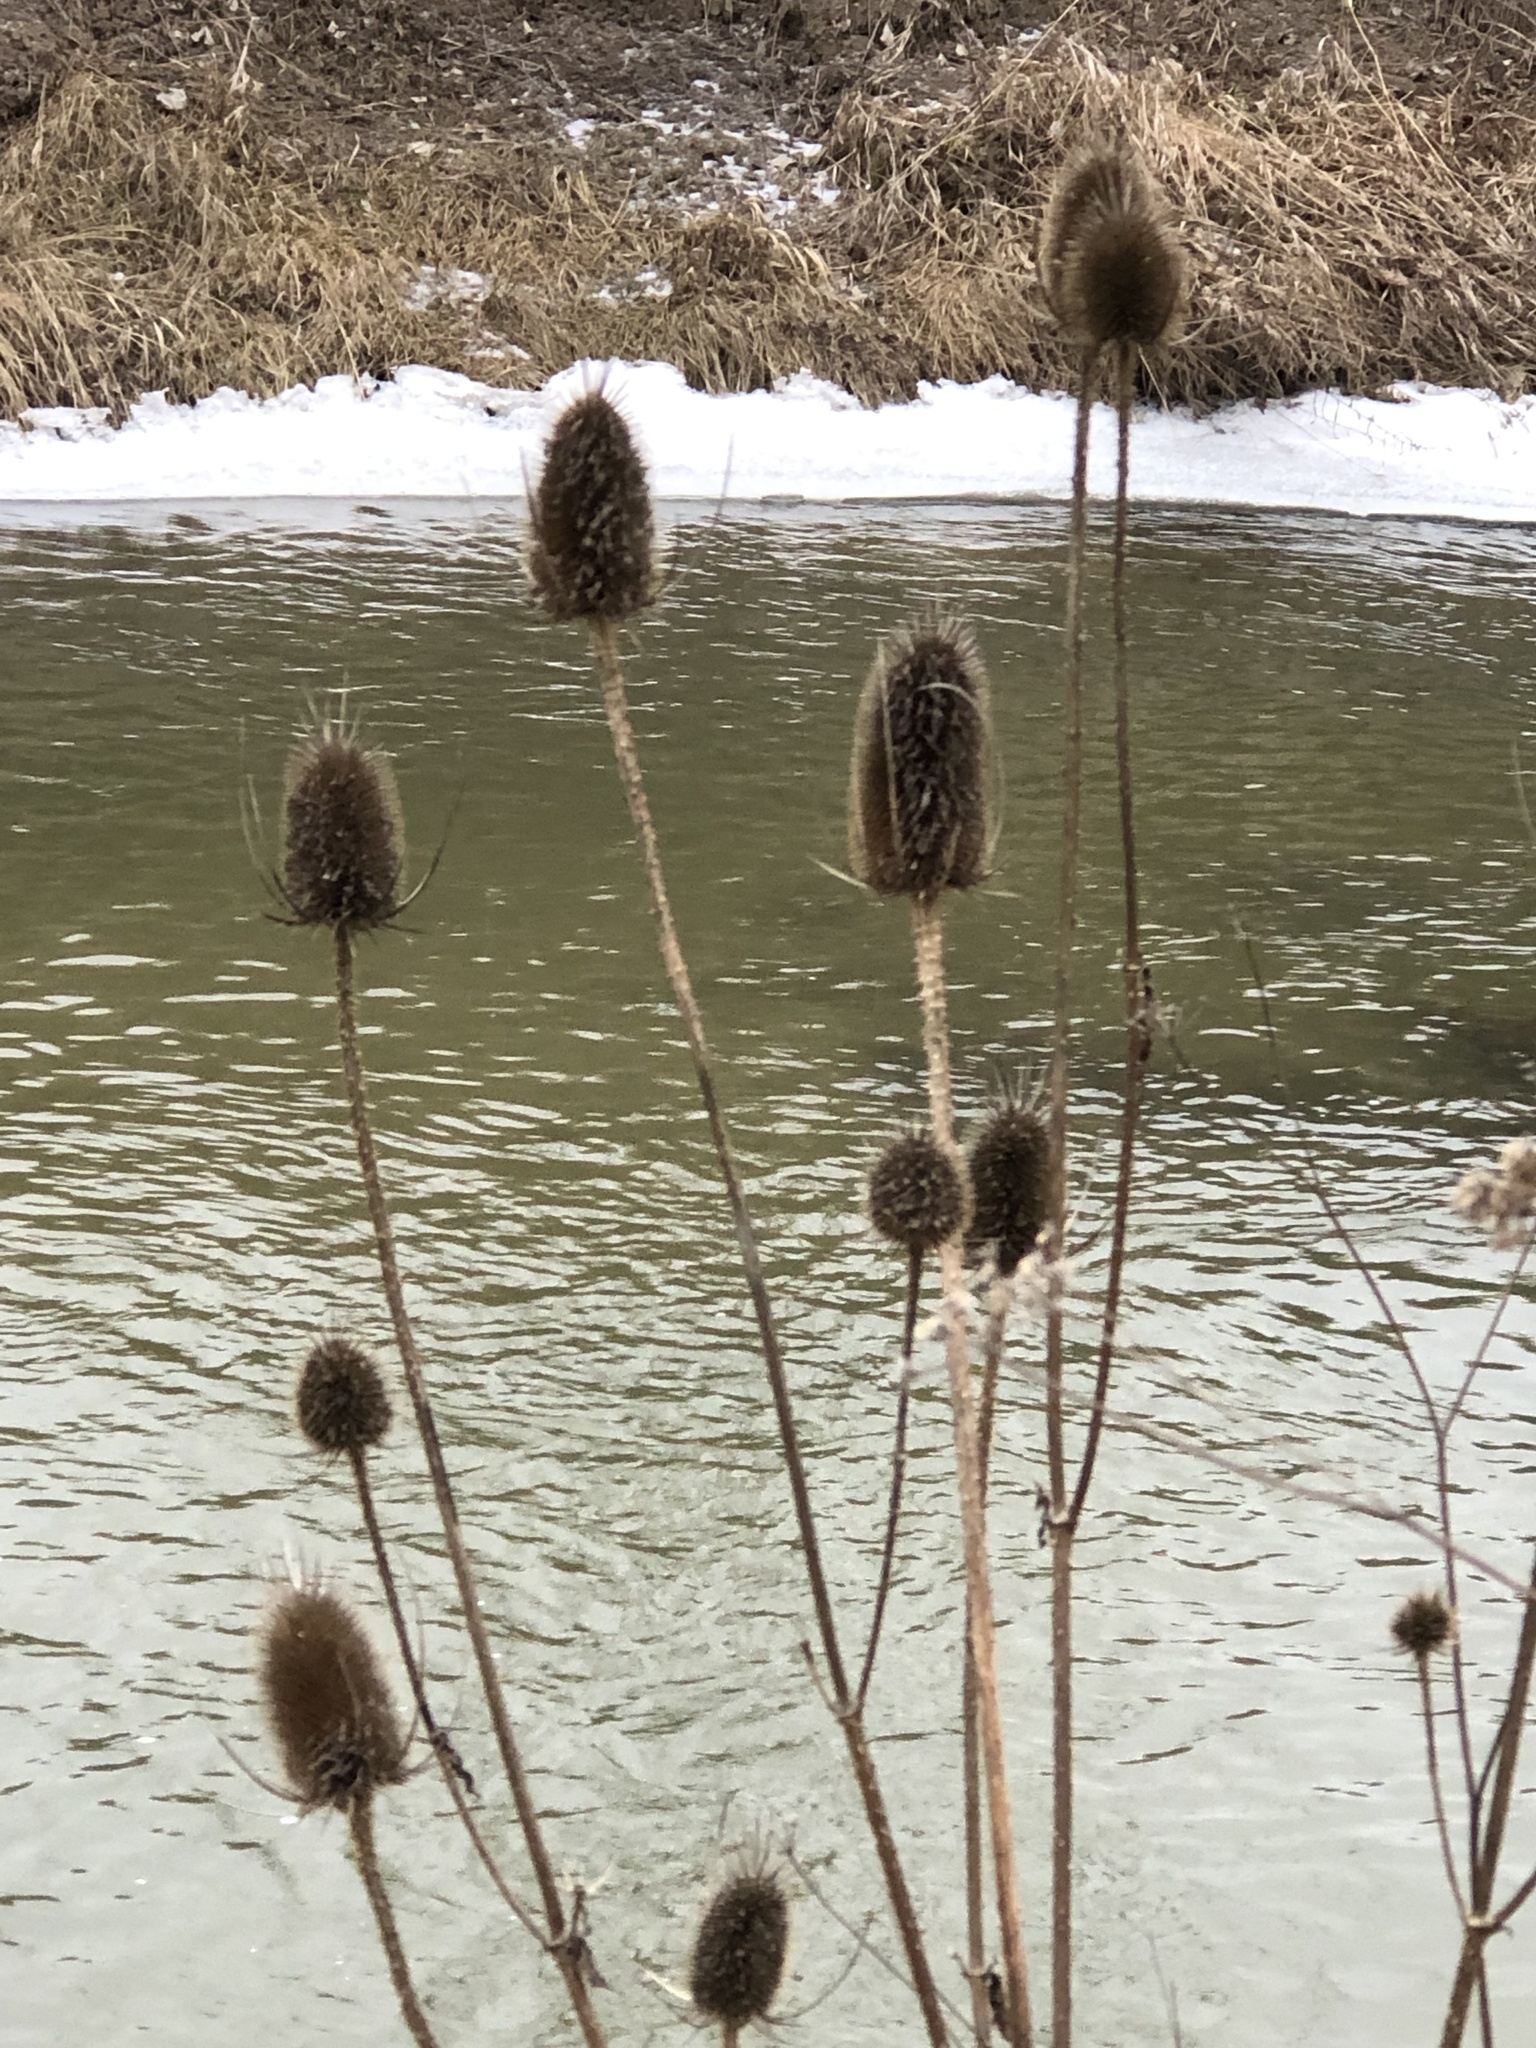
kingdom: Plantae
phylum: Tracheophyta
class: Magnoliopsida
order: Dipsacales
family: Caprifoliaceae
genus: Dipsacus
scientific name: Dipsacus fullonum
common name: Teasel
